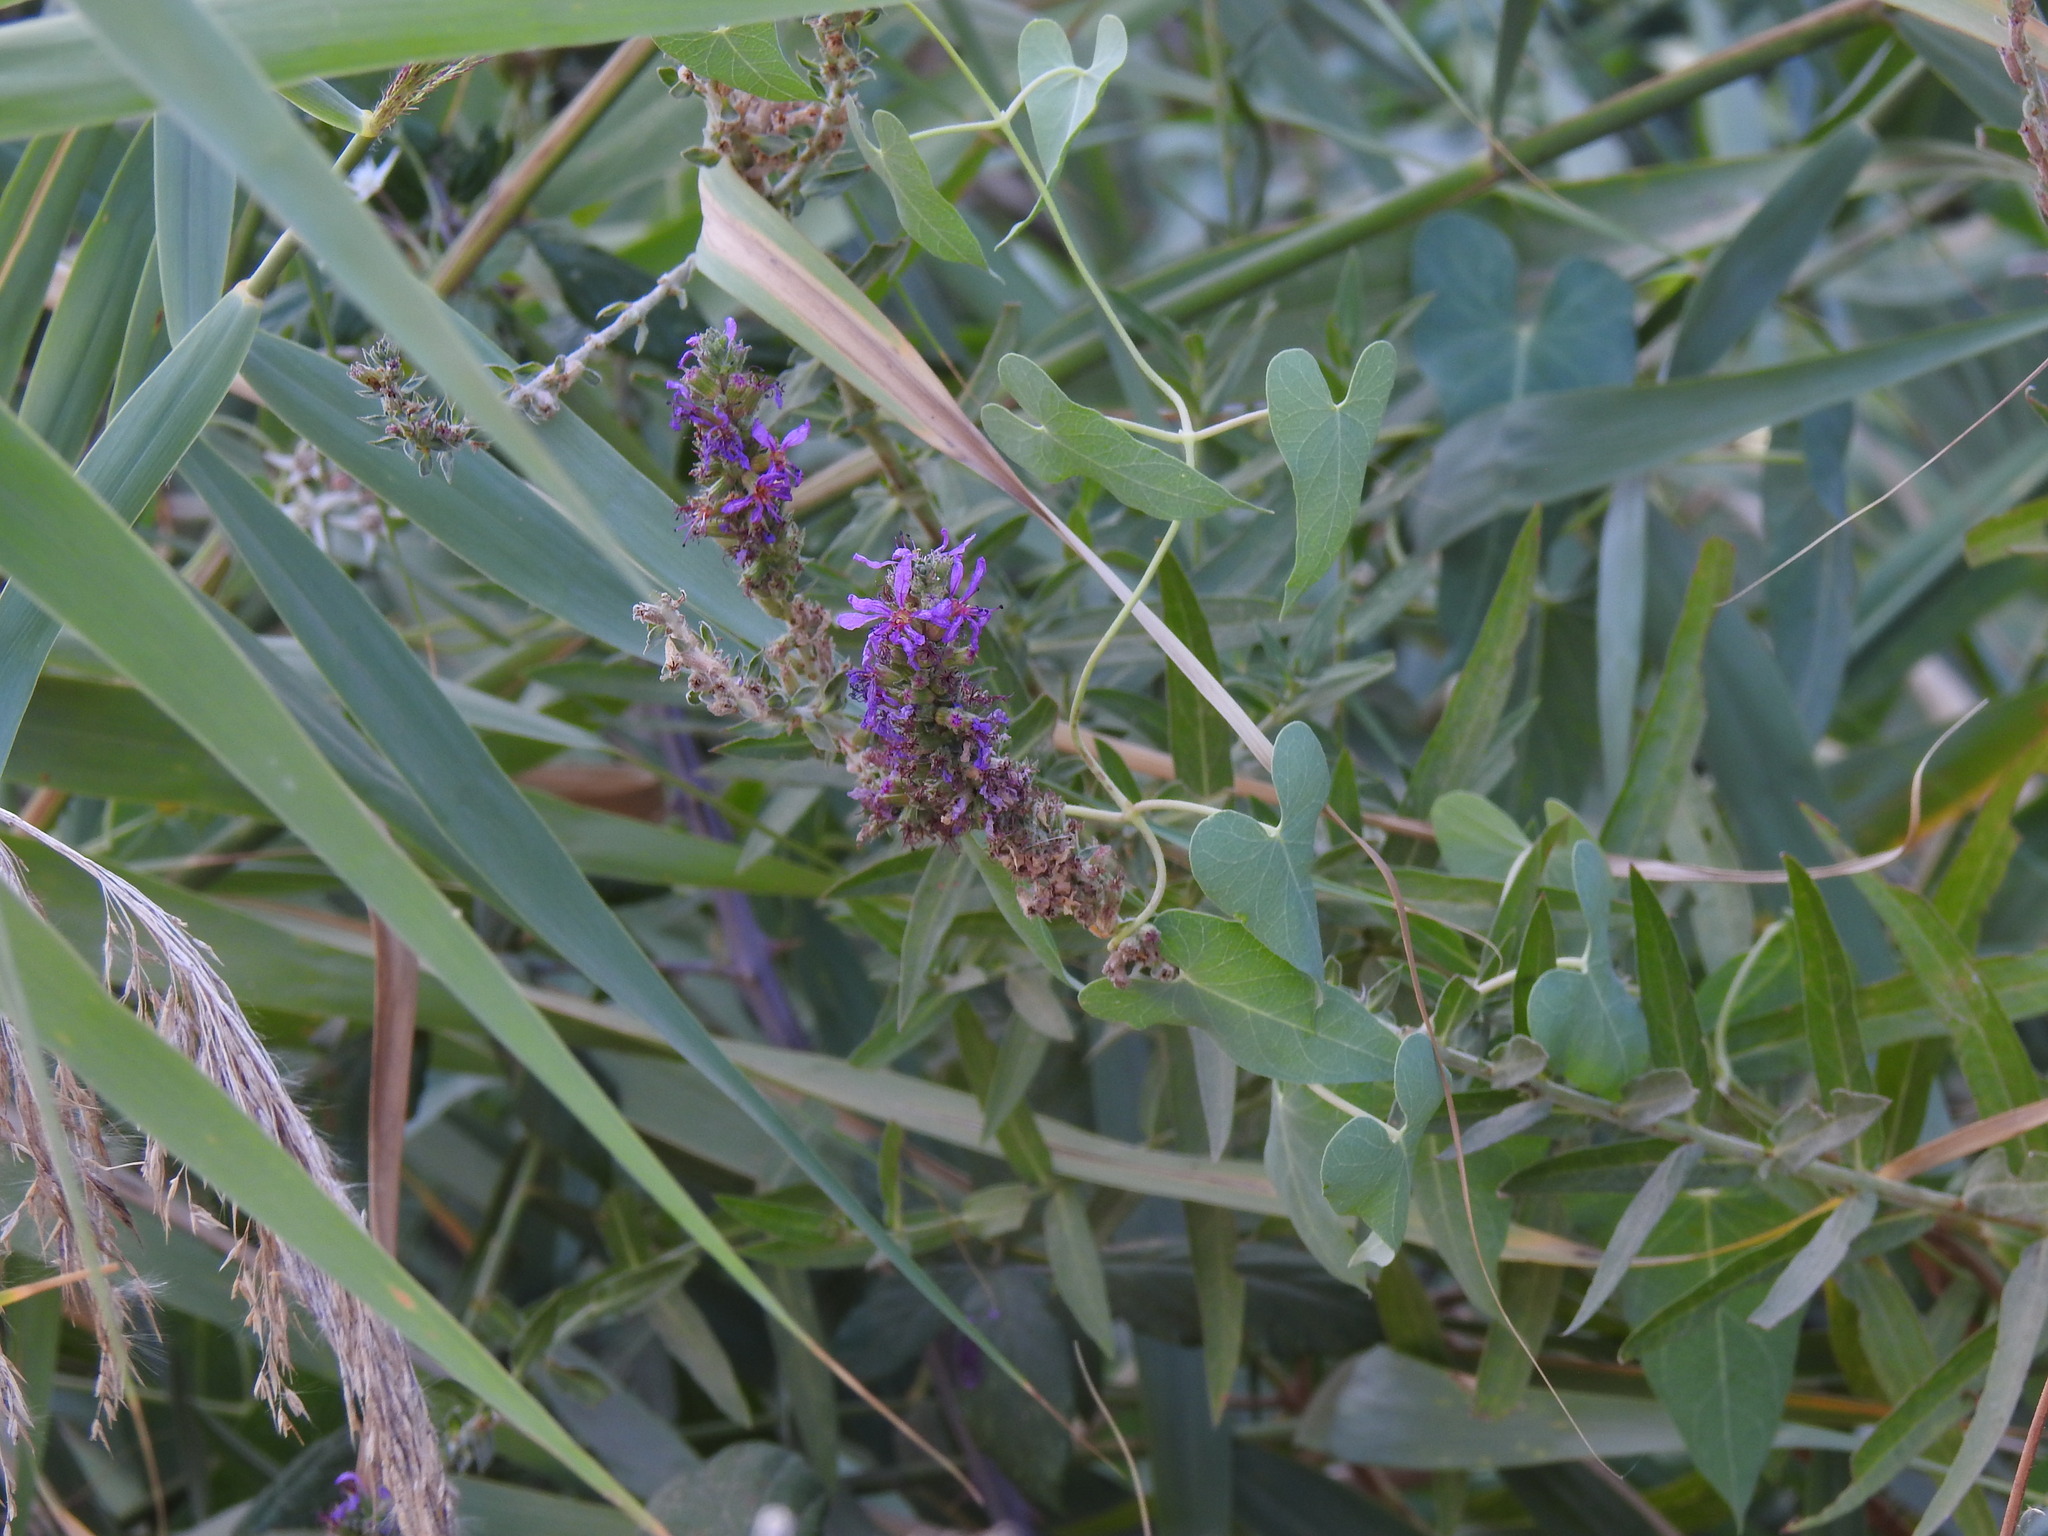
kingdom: Plantae
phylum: Tracheophyta
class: Magnoliopsida
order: Myrtales
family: Lythraceae
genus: Lythrum
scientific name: Lythrum salicaria
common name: Purple loosestrife
